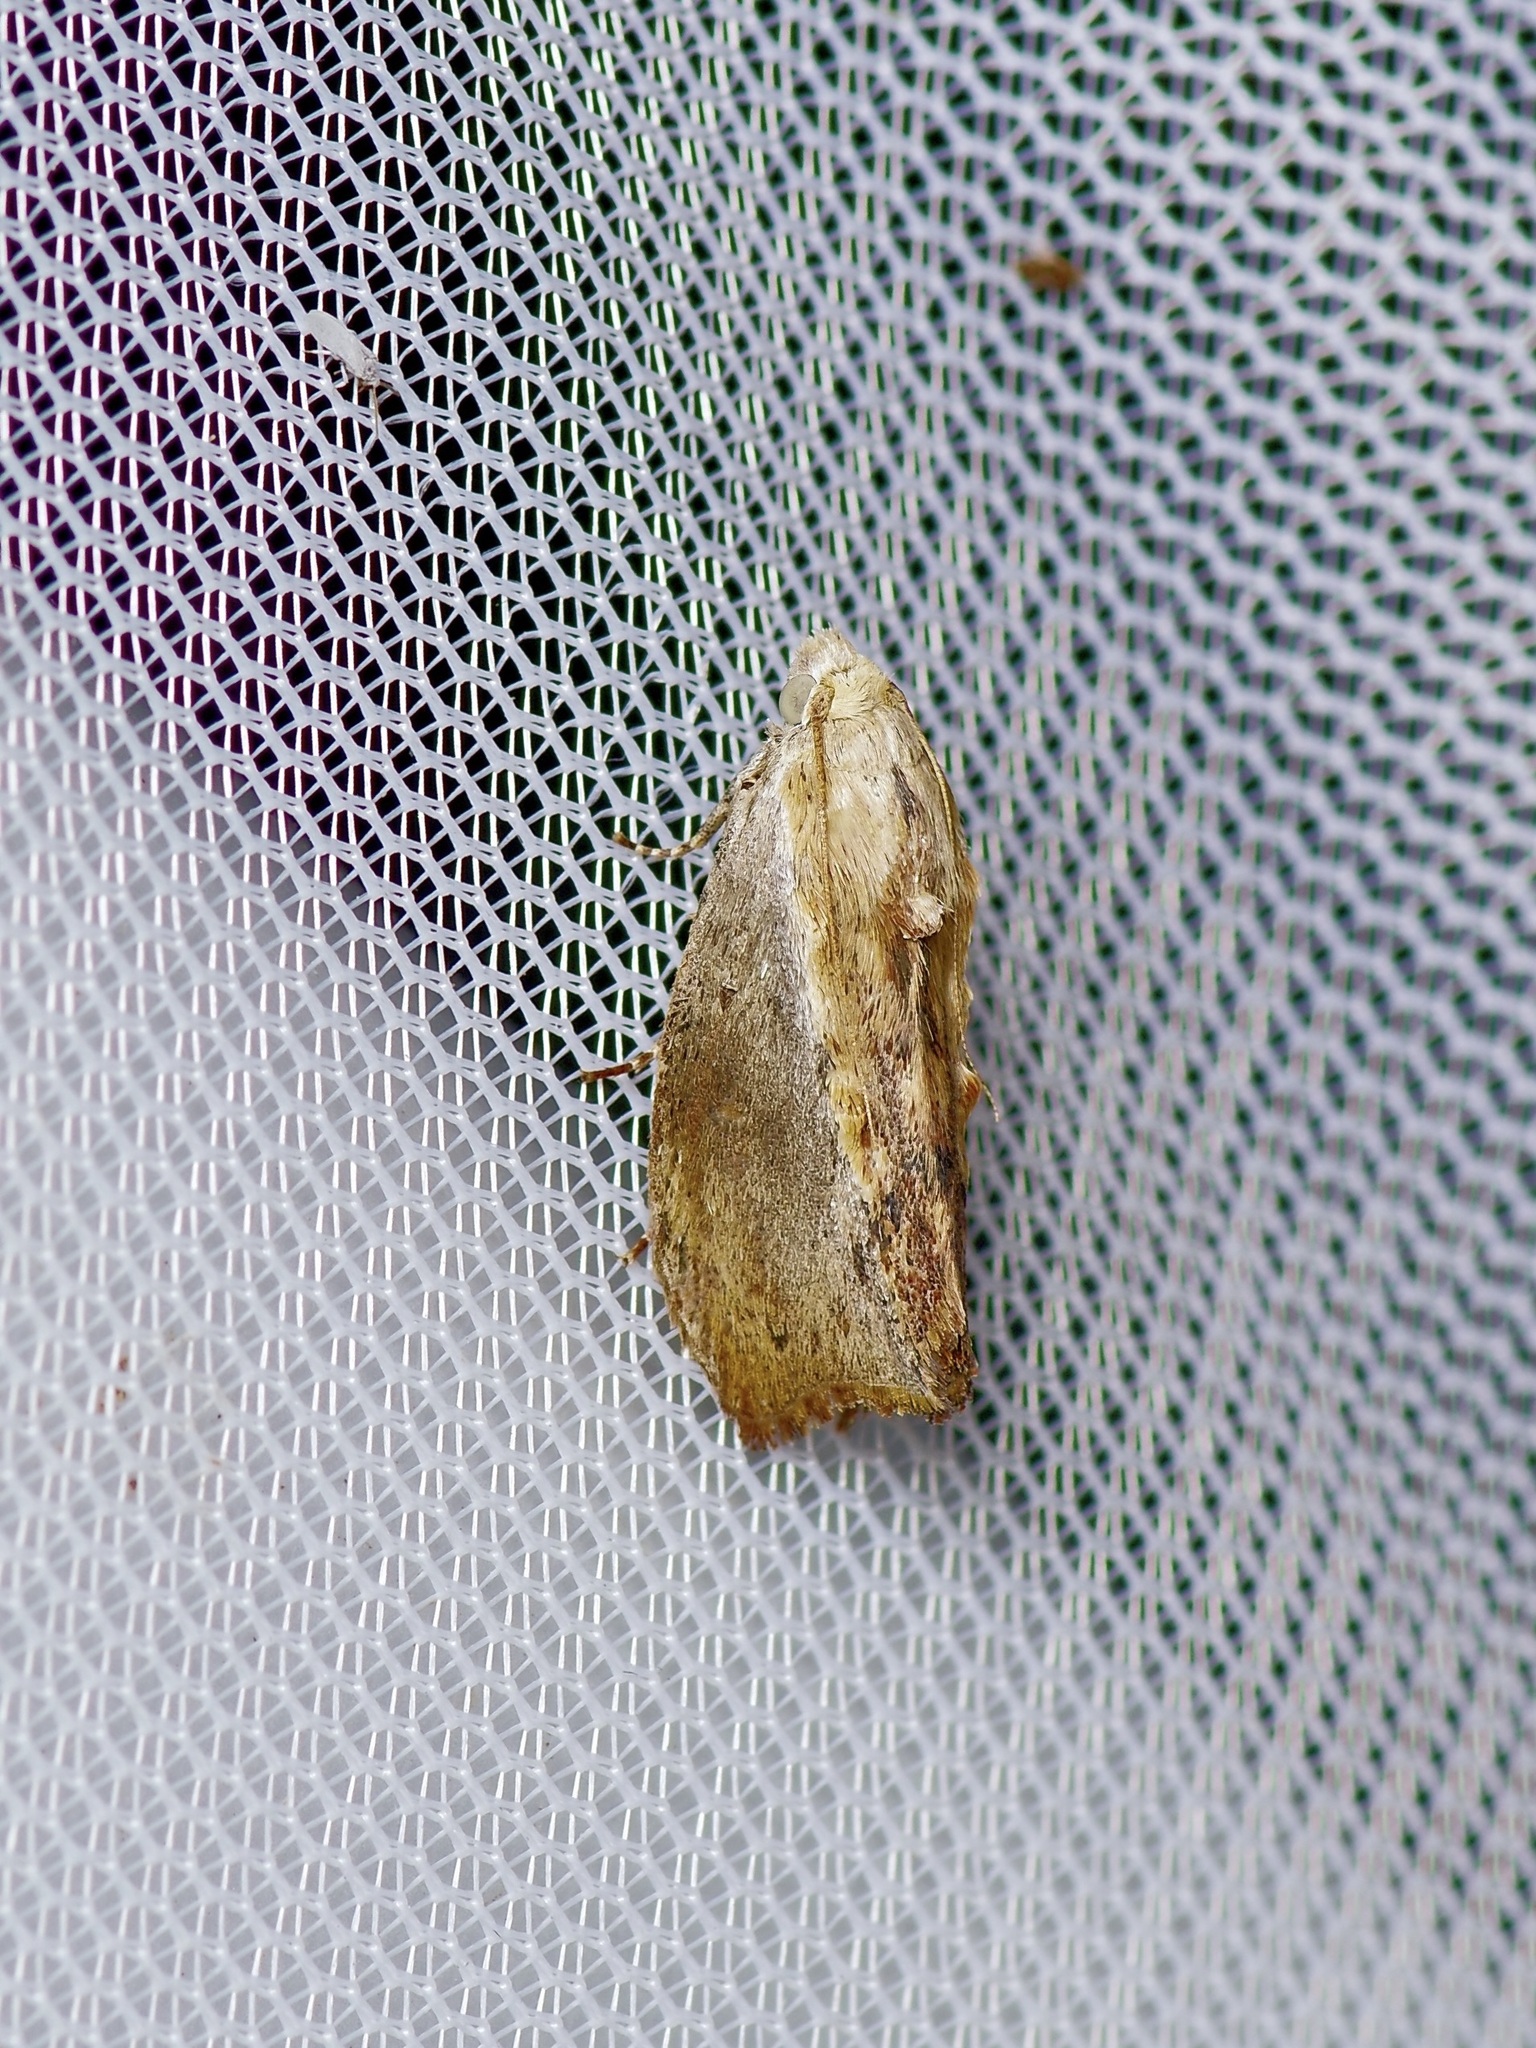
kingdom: Animalia
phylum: Arthropoda
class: Insecta
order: Lepidoptera
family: Pyralidae
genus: Galleria
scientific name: Galleria mellonella
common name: Greater wax moth
